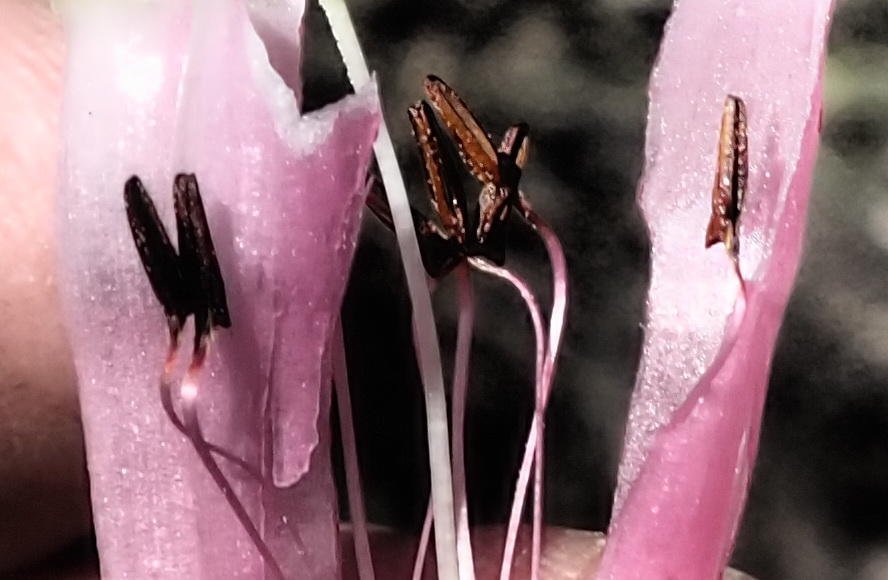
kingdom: Plantae
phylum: Tracheophyta
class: Magnoliopsida
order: Ericales
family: Ericaceae
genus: Erica
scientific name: Erica diaphana
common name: Heath
